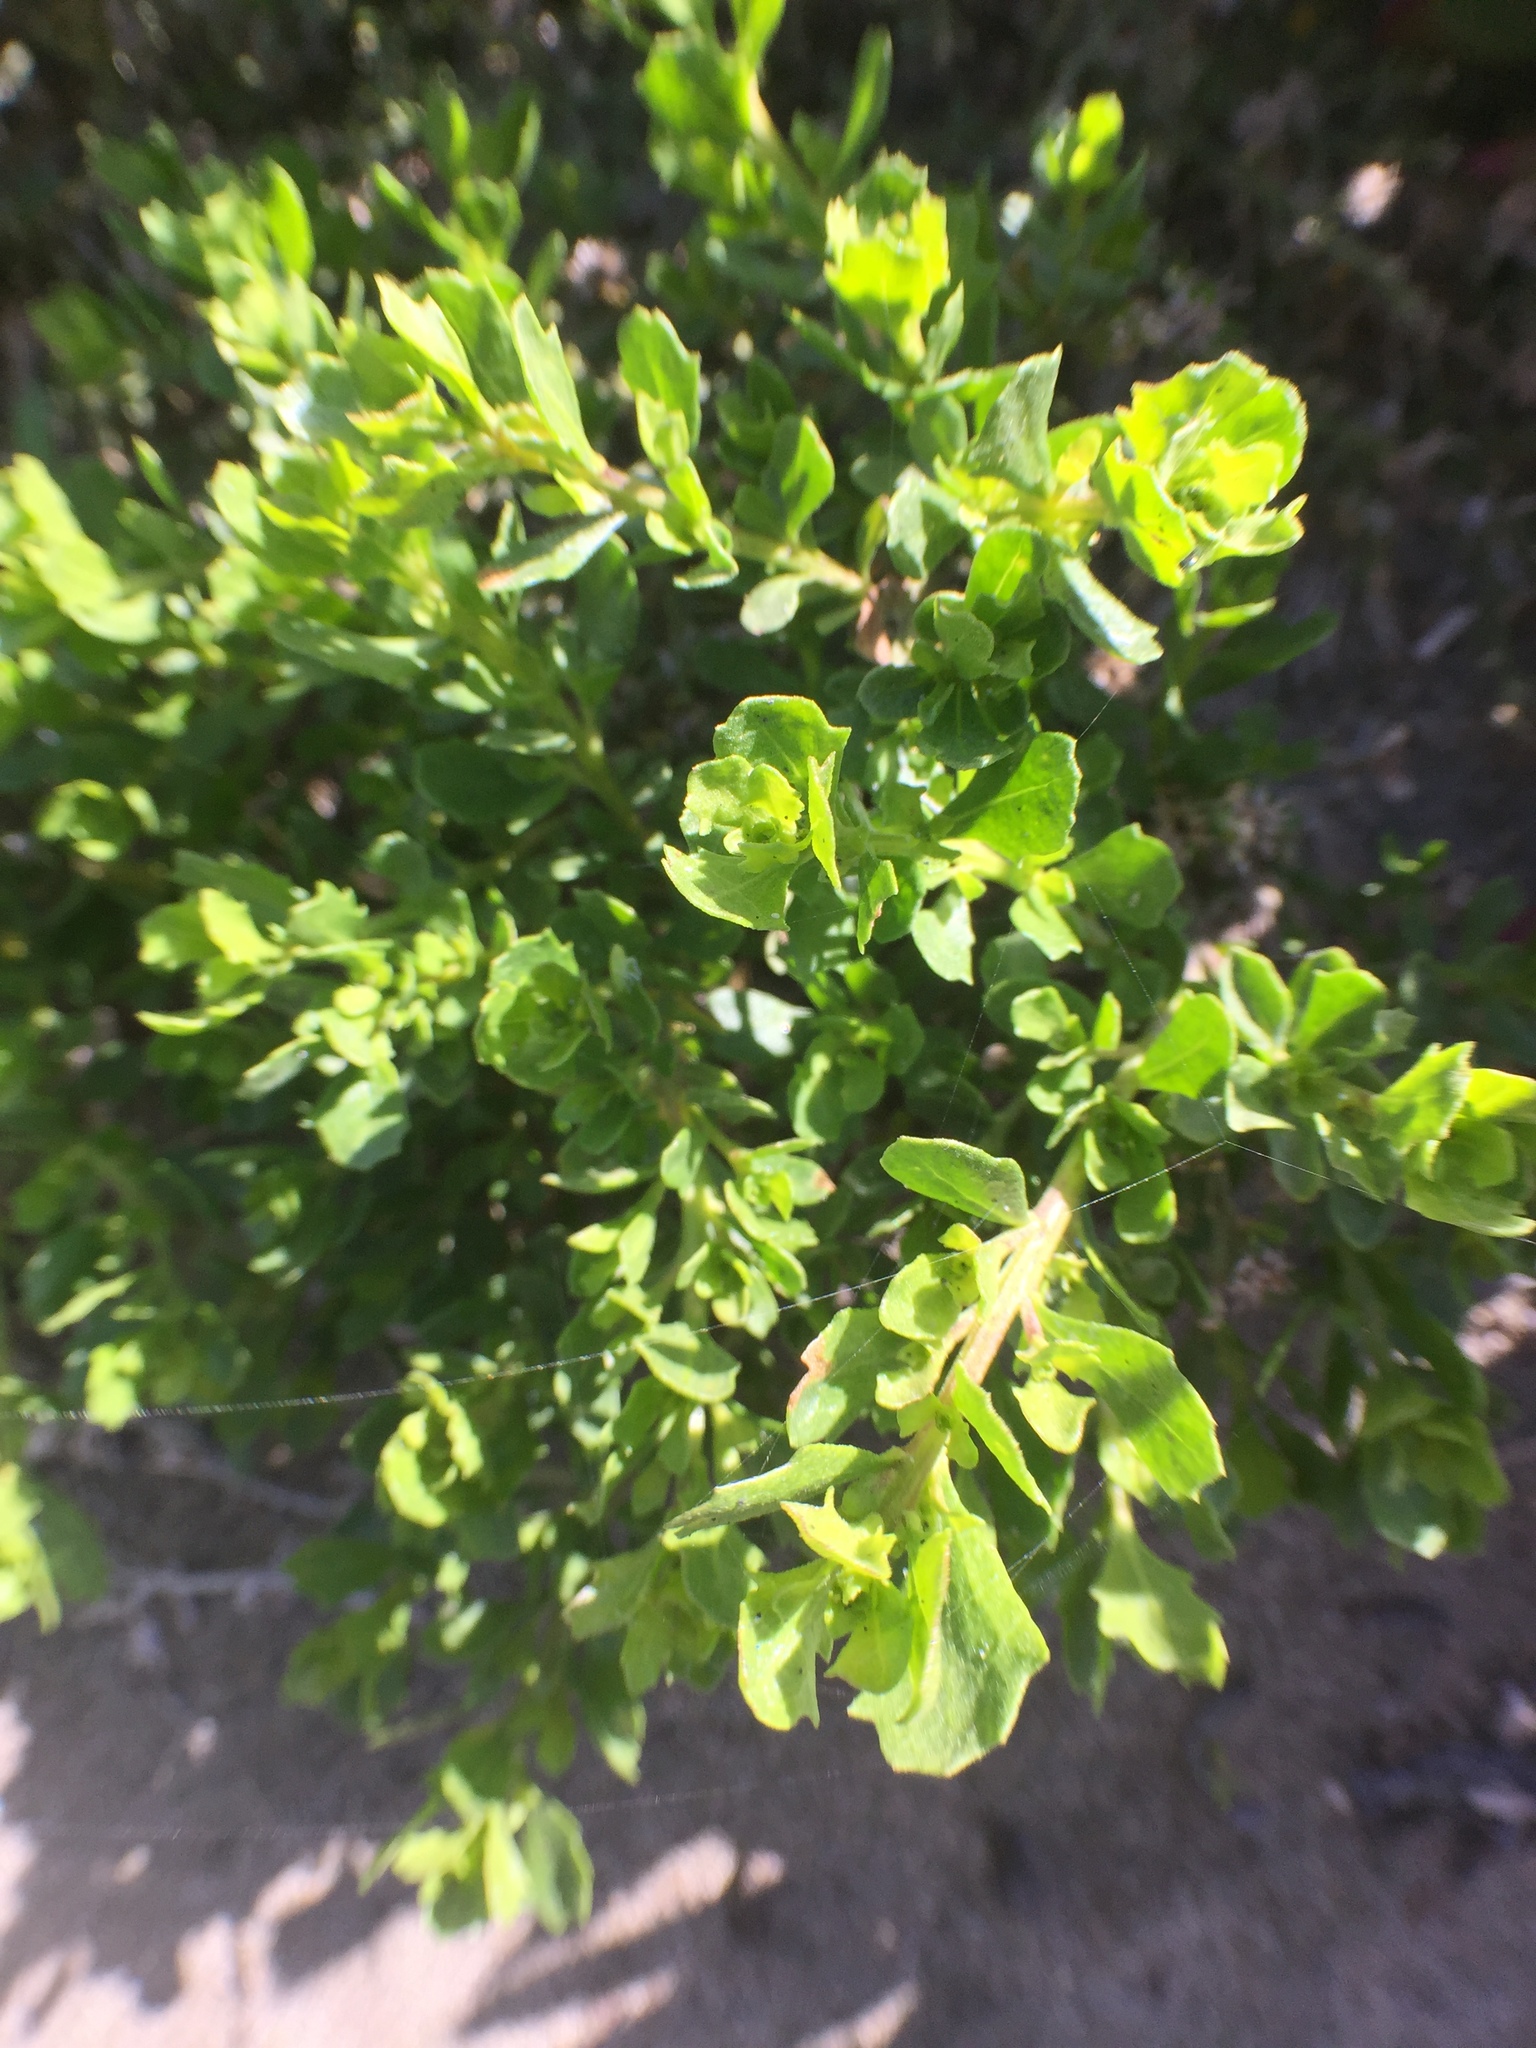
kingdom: Plantae
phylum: Tracheophyta
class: Magnoliopsida
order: Asterales
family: Asteraceae
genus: Baccharis
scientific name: Baccharis pilularis
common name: Coyotebrush
